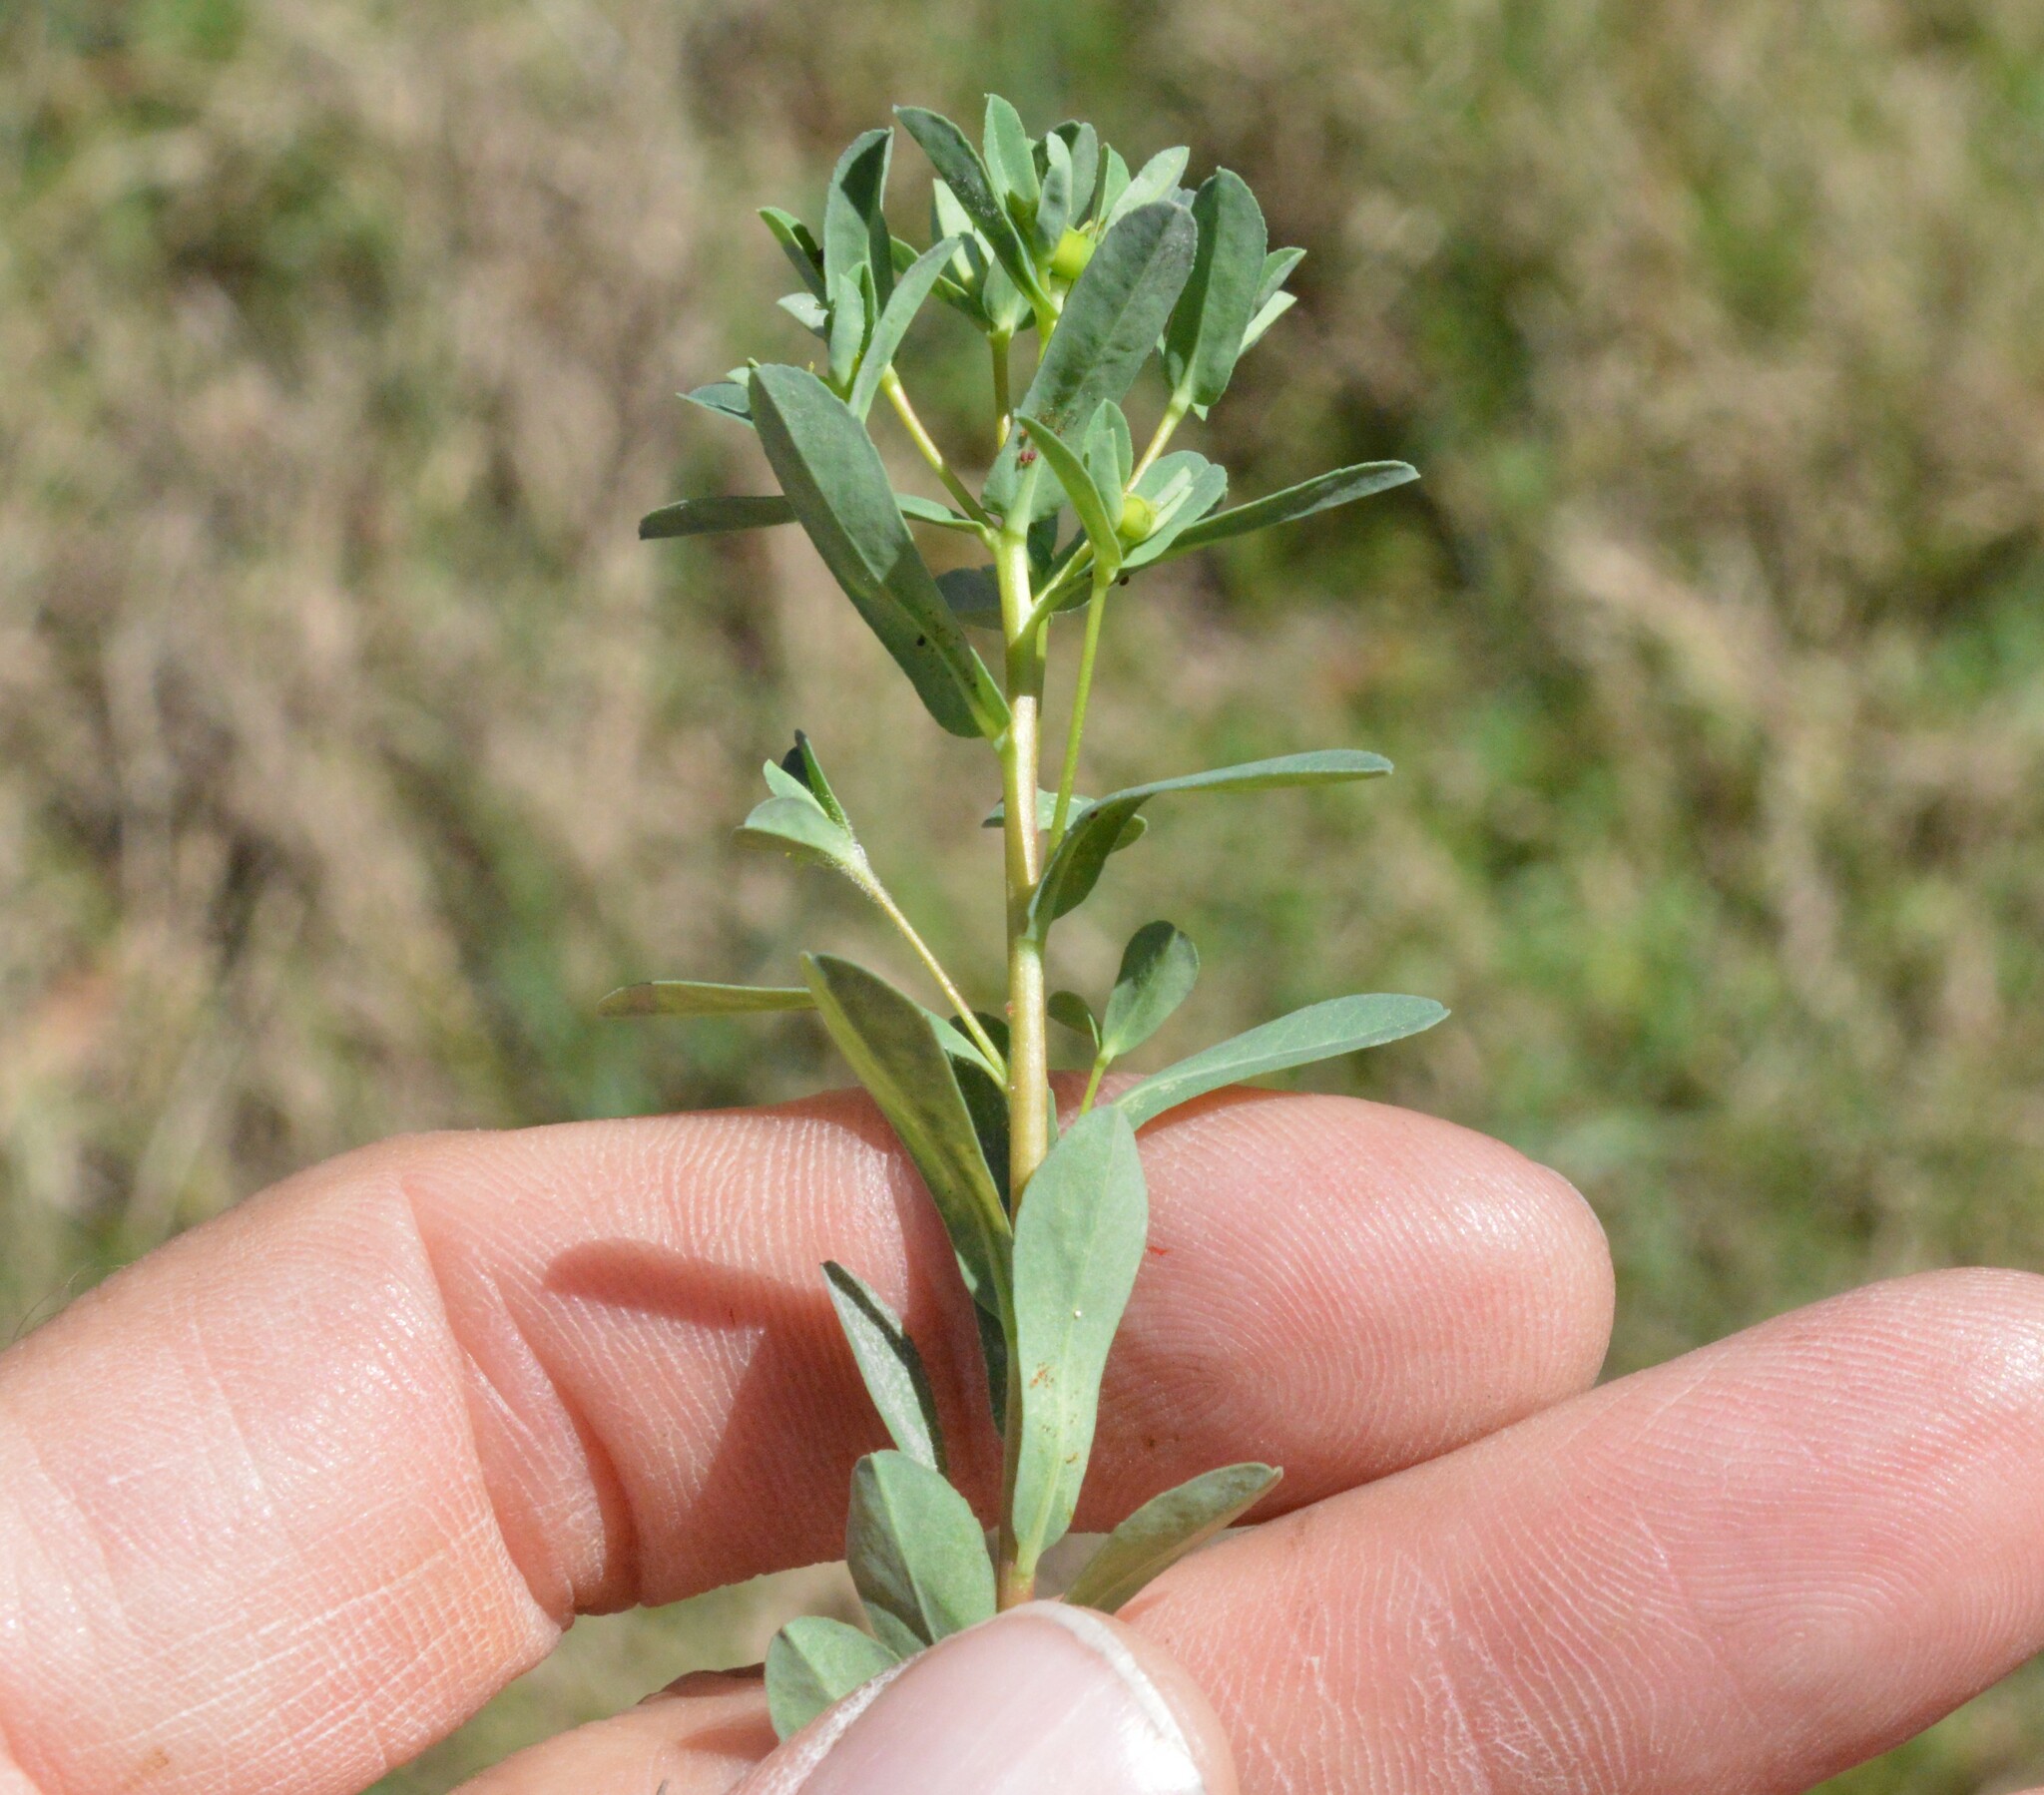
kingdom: Plantae
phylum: Tracheophyta
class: Magnoliopsida
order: Malpighiales
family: Euphorbiaceae
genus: Euphorbia
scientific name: Euphorbia texana
